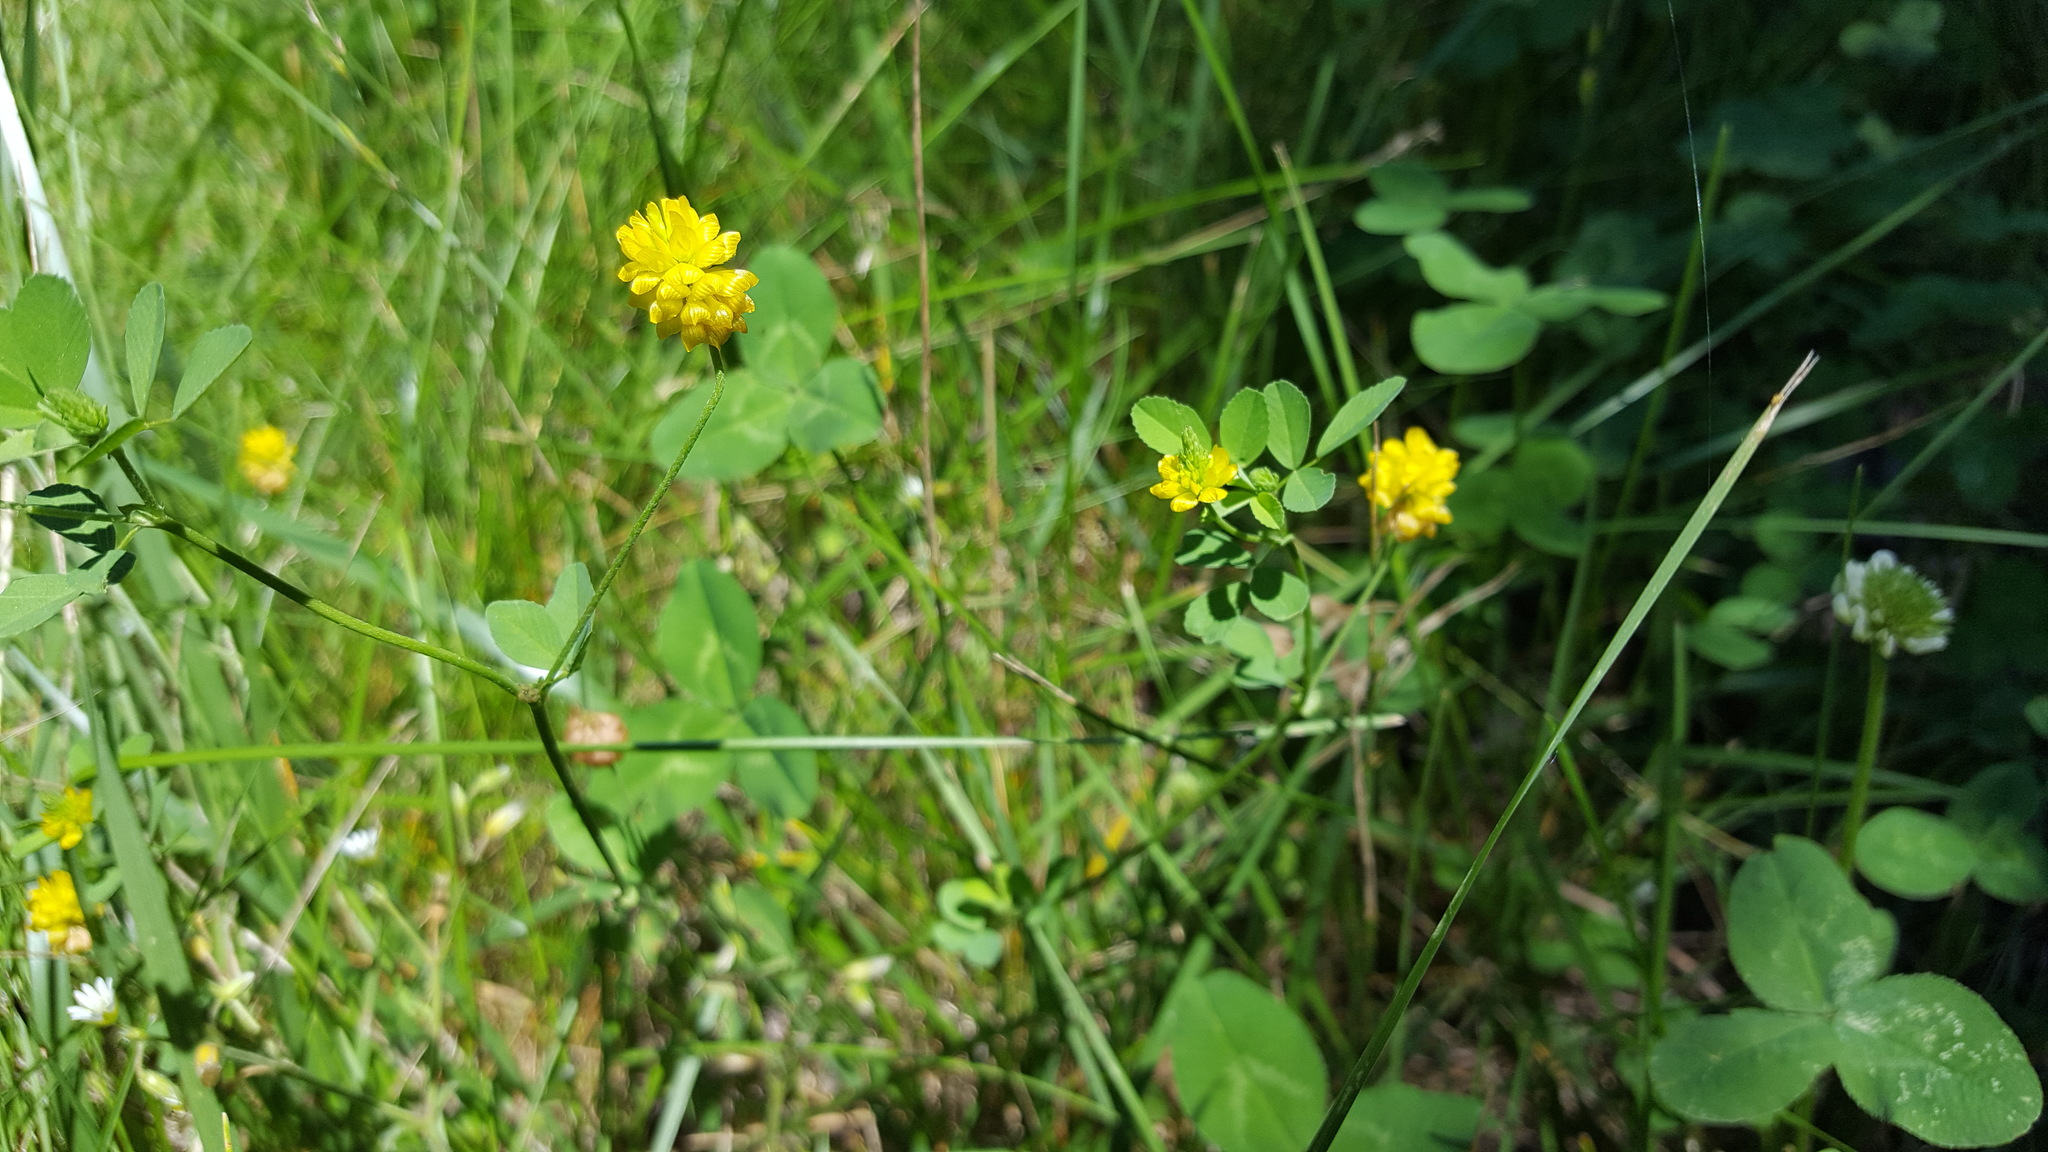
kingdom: Plantae
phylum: Tracheophyta
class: Magnoliopsida
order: Fabales
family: Fabaceae
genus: Trifolium
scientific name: Trifolium campestre
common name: Field clover
